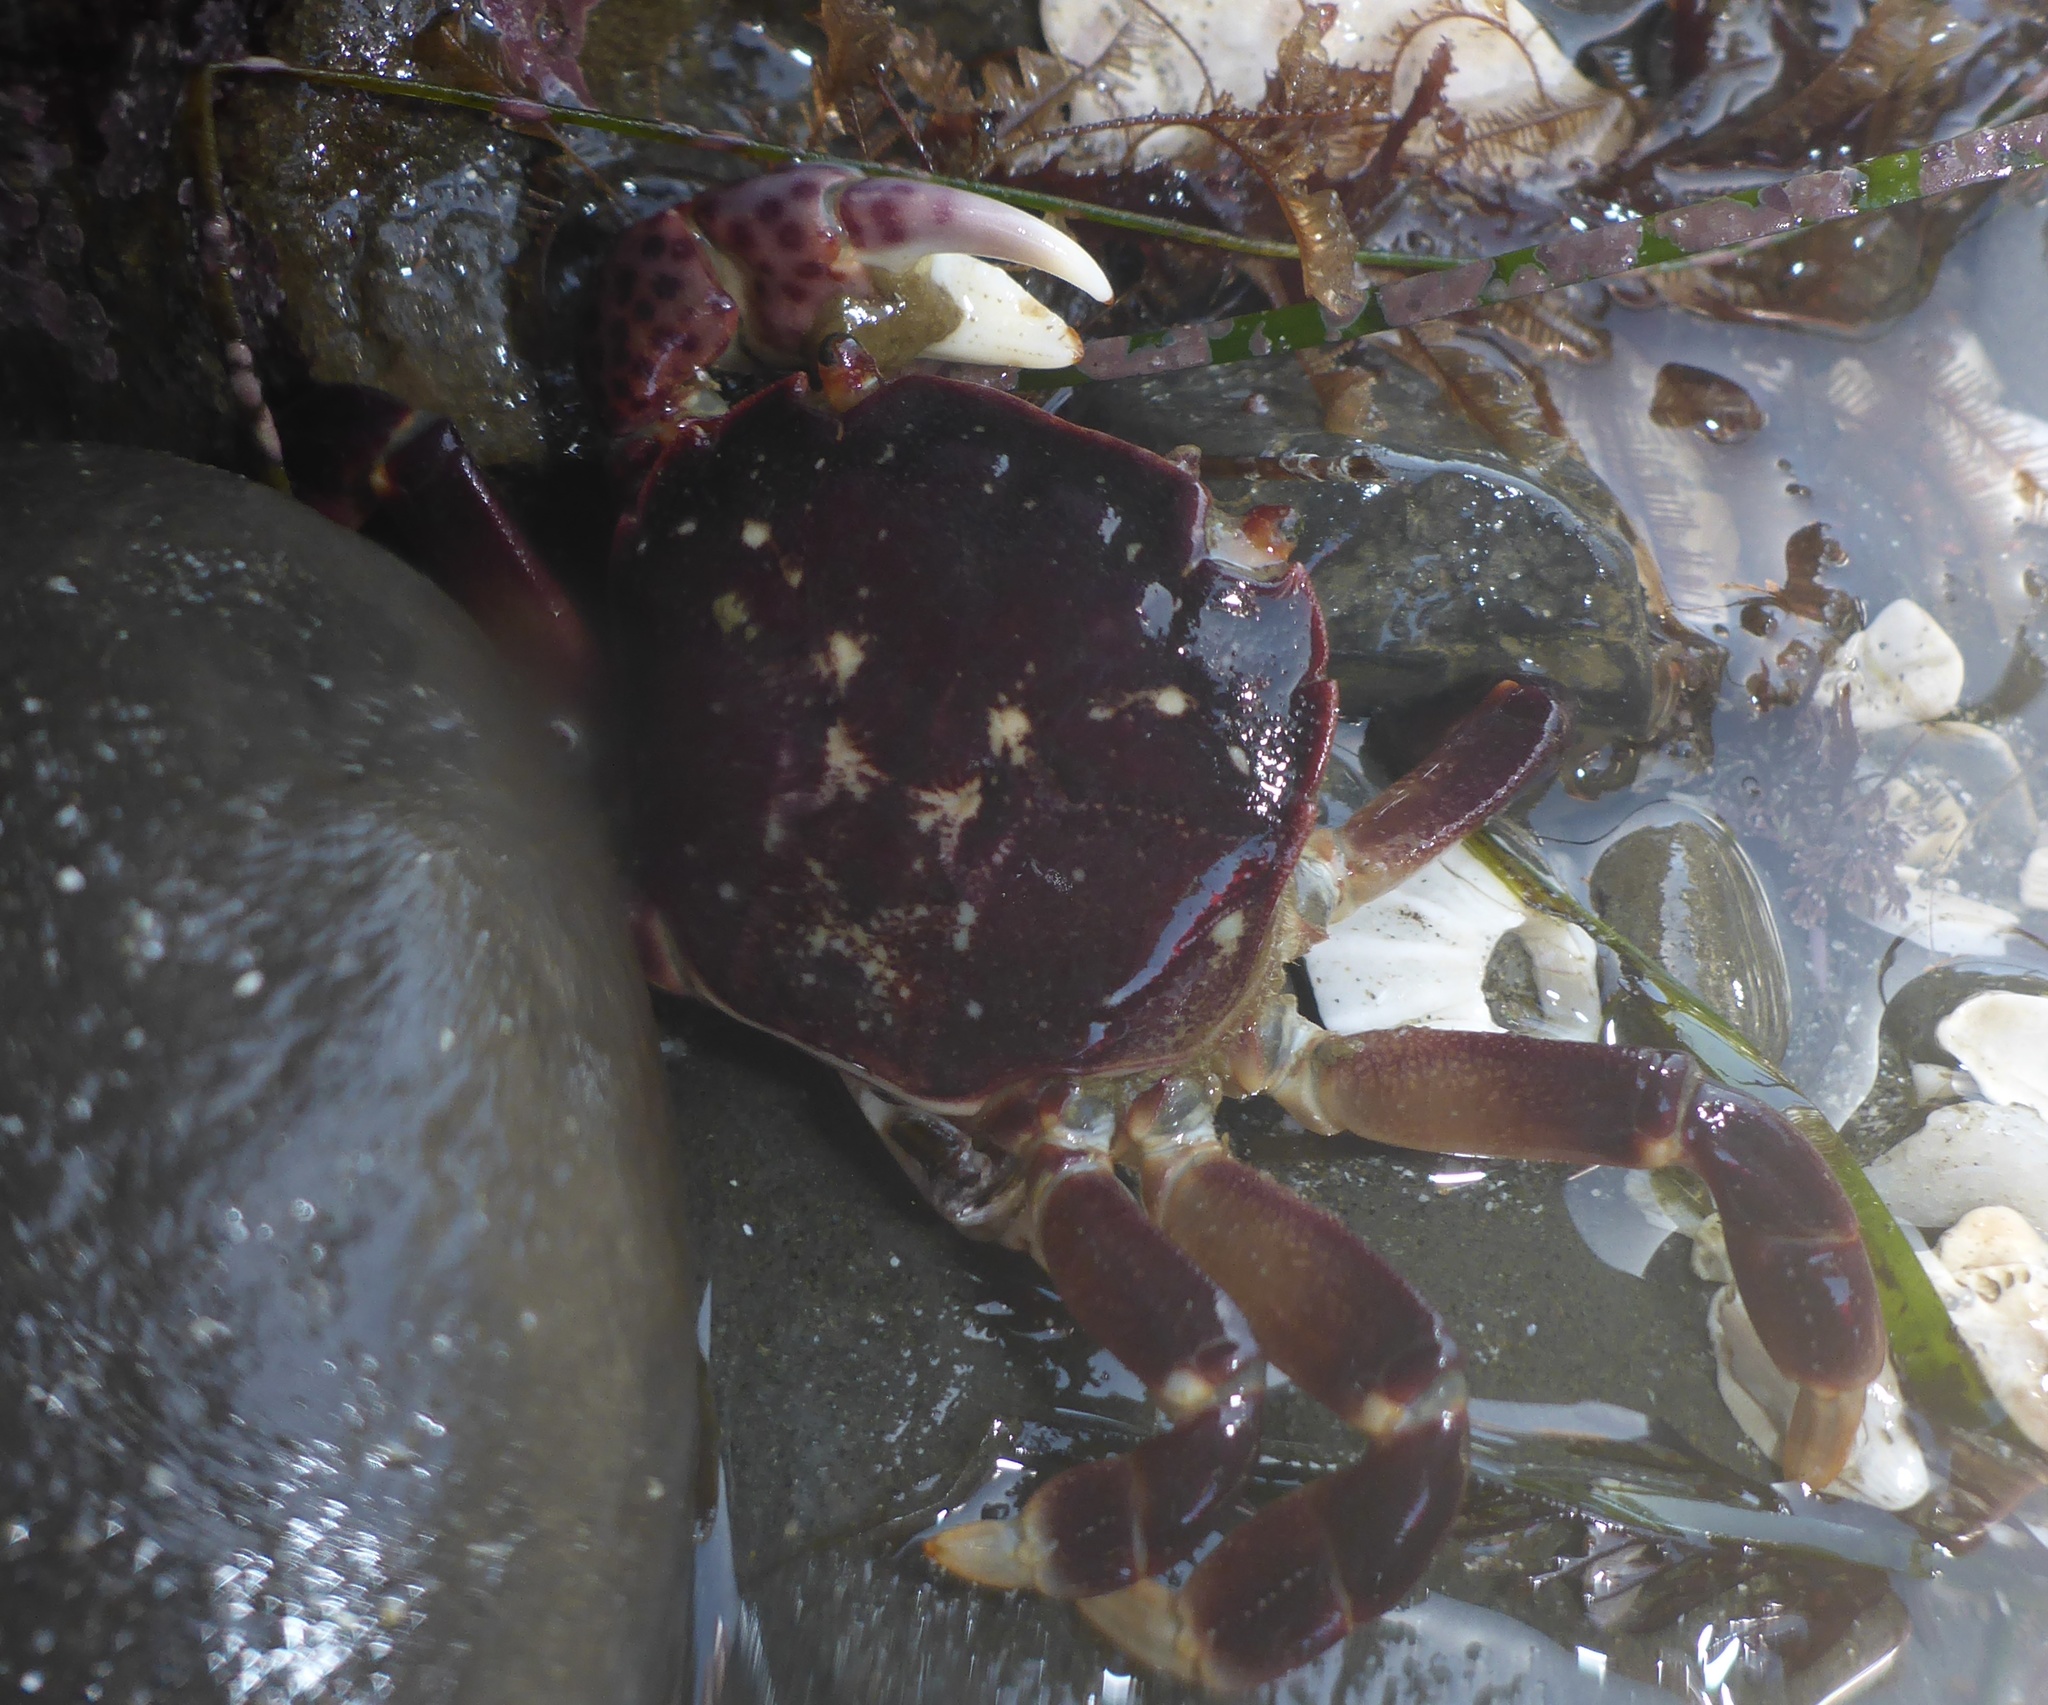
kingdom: Animalia
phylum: Arthropoda
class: Malacostraca
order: Decapoda
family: Varunidae
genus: Hemigrapsus
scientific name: Hemigrapsus nudus
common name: Purple shore crab
